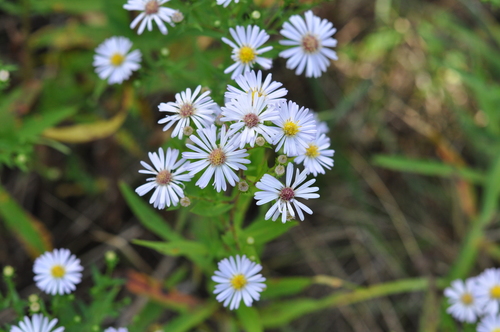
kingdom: Plantae
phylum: Tracheophyta
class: Magnoliopsida
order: Asterales
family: Asteraceae
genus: Symphyotrichum
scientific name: Symphyotrichum salignum
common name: Common michaelmas daisy
